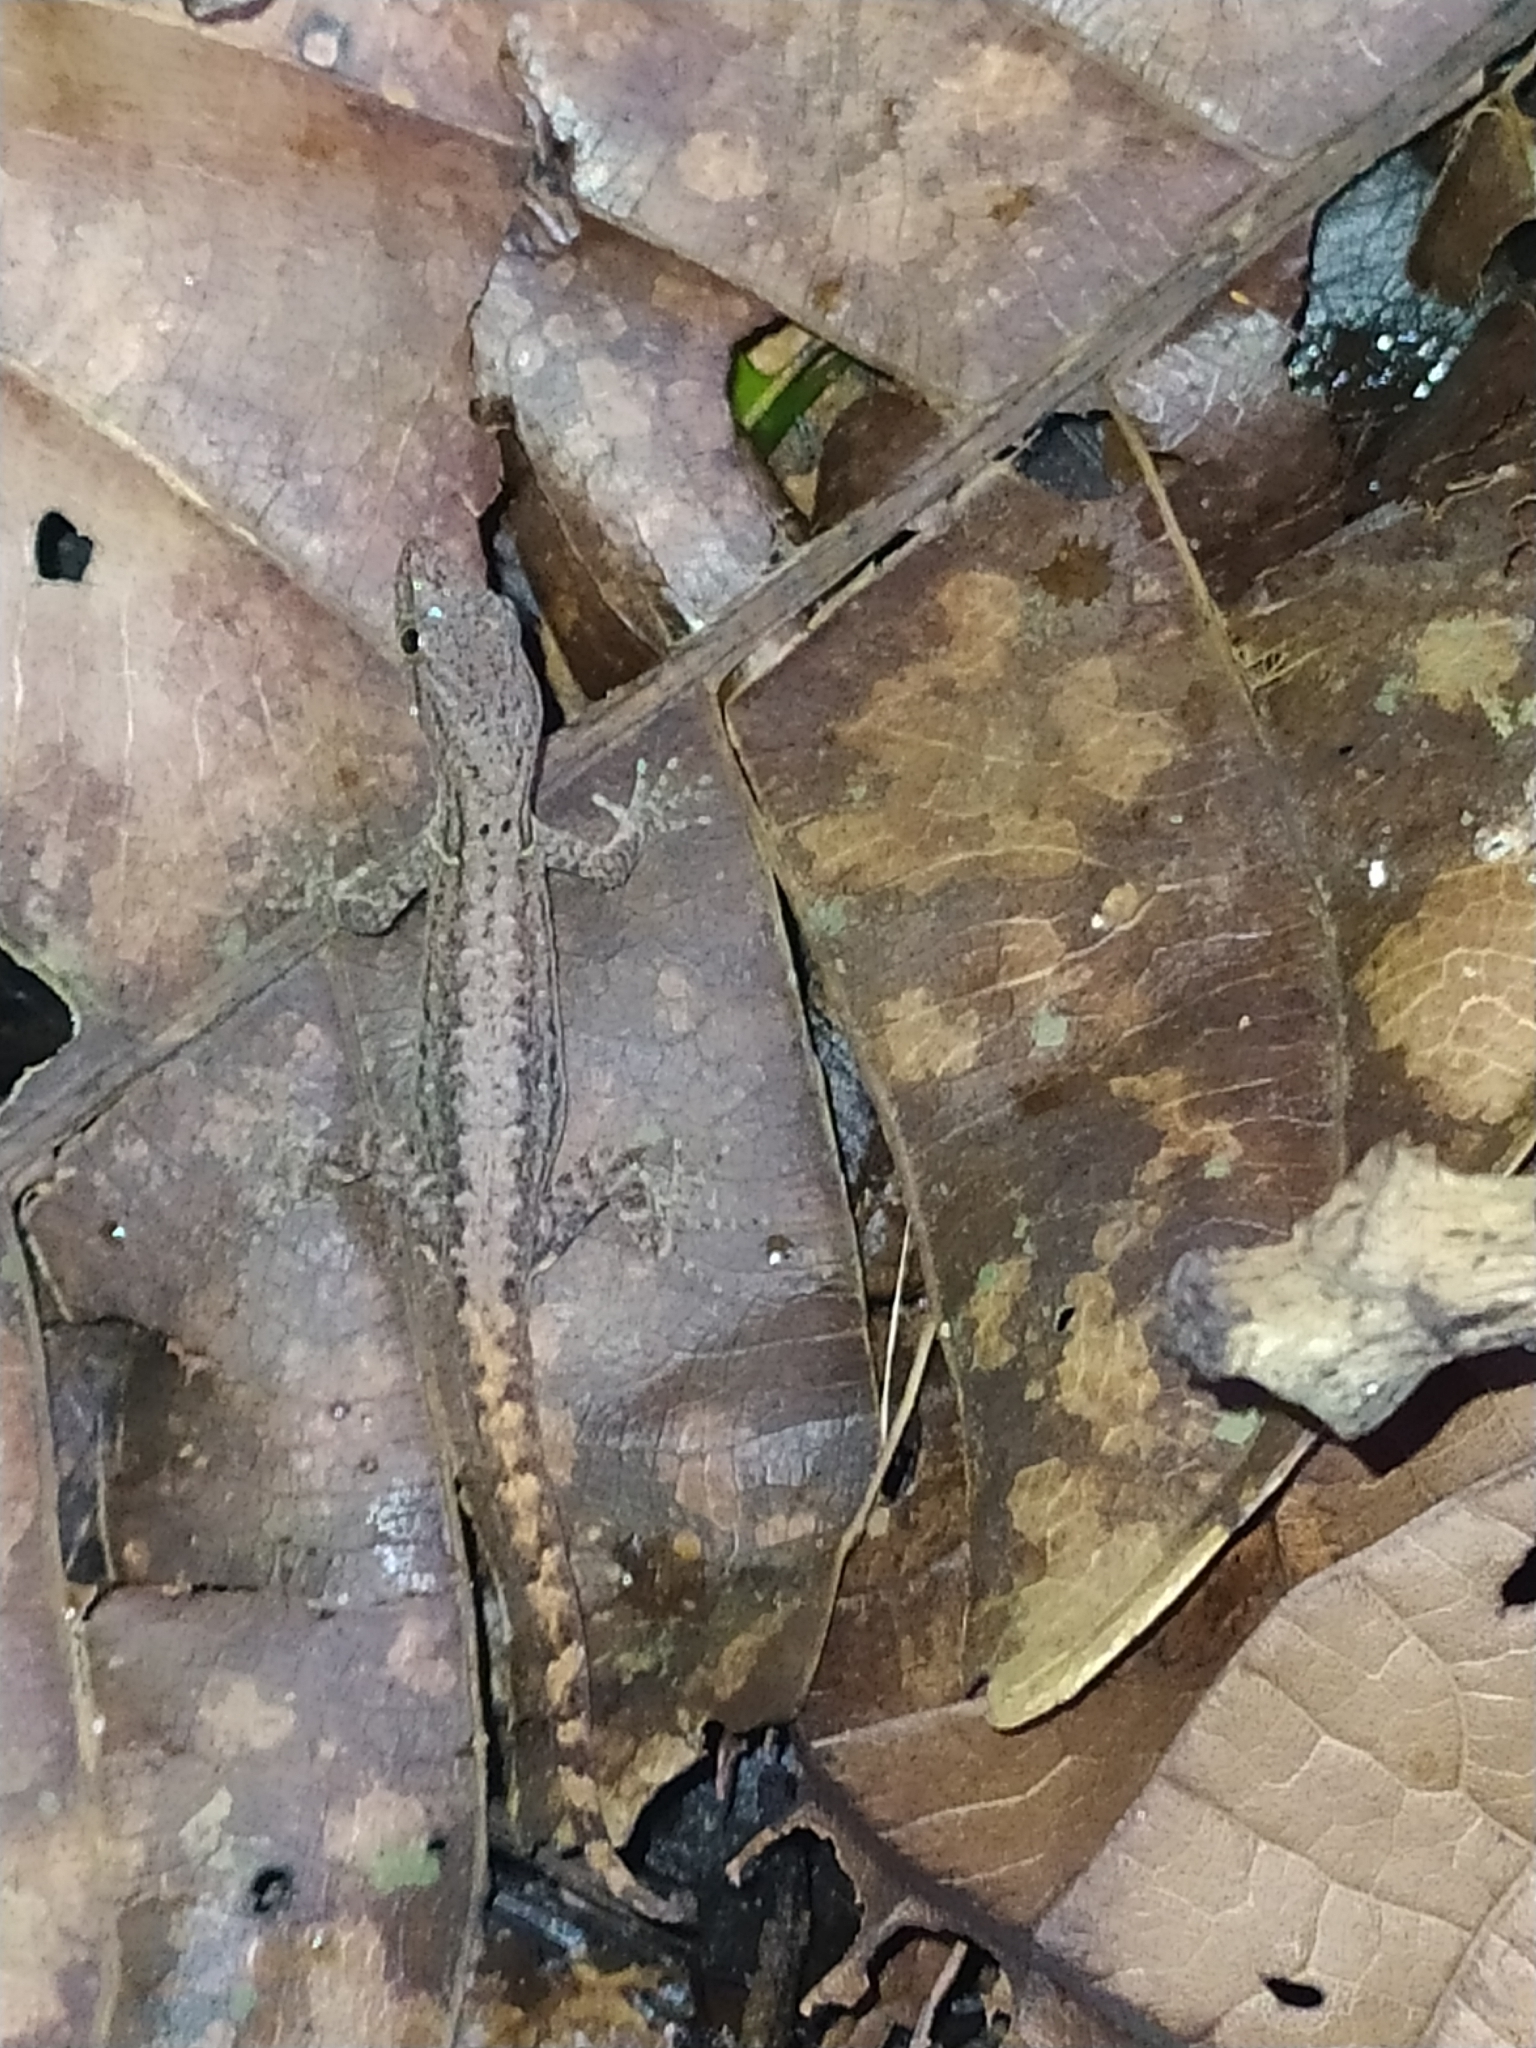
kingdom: Animalia
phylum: Chordata
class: Squamata
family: Sphaerodactylidae
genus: Gonatodes
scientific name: Gonatodes humeralis
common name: South american clawed gecko
